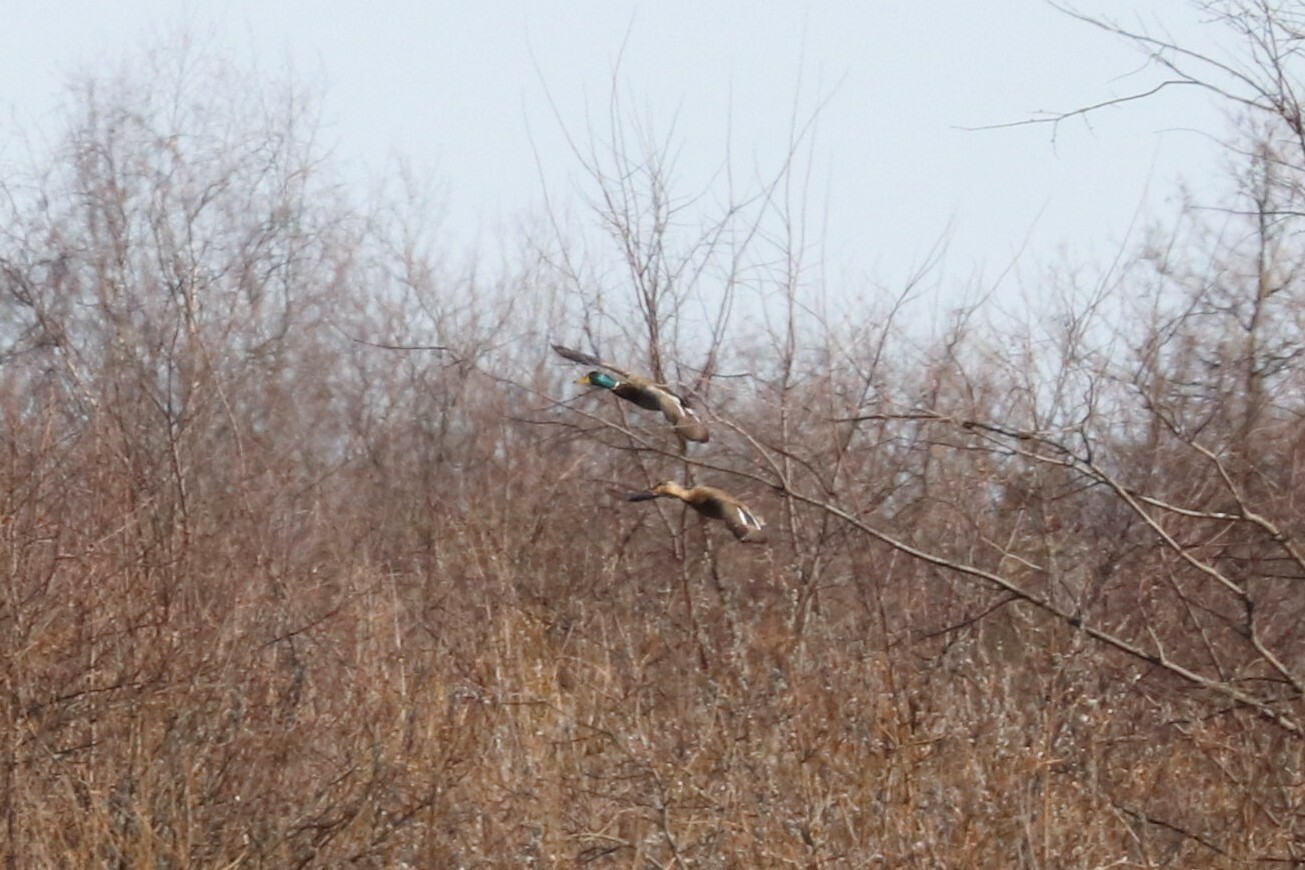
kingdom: Animalia
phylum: Chordata
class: Aves
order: Anseriformes
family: Anatidae
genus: Anas
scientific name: Anas platyrhynchos
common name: Mallard
